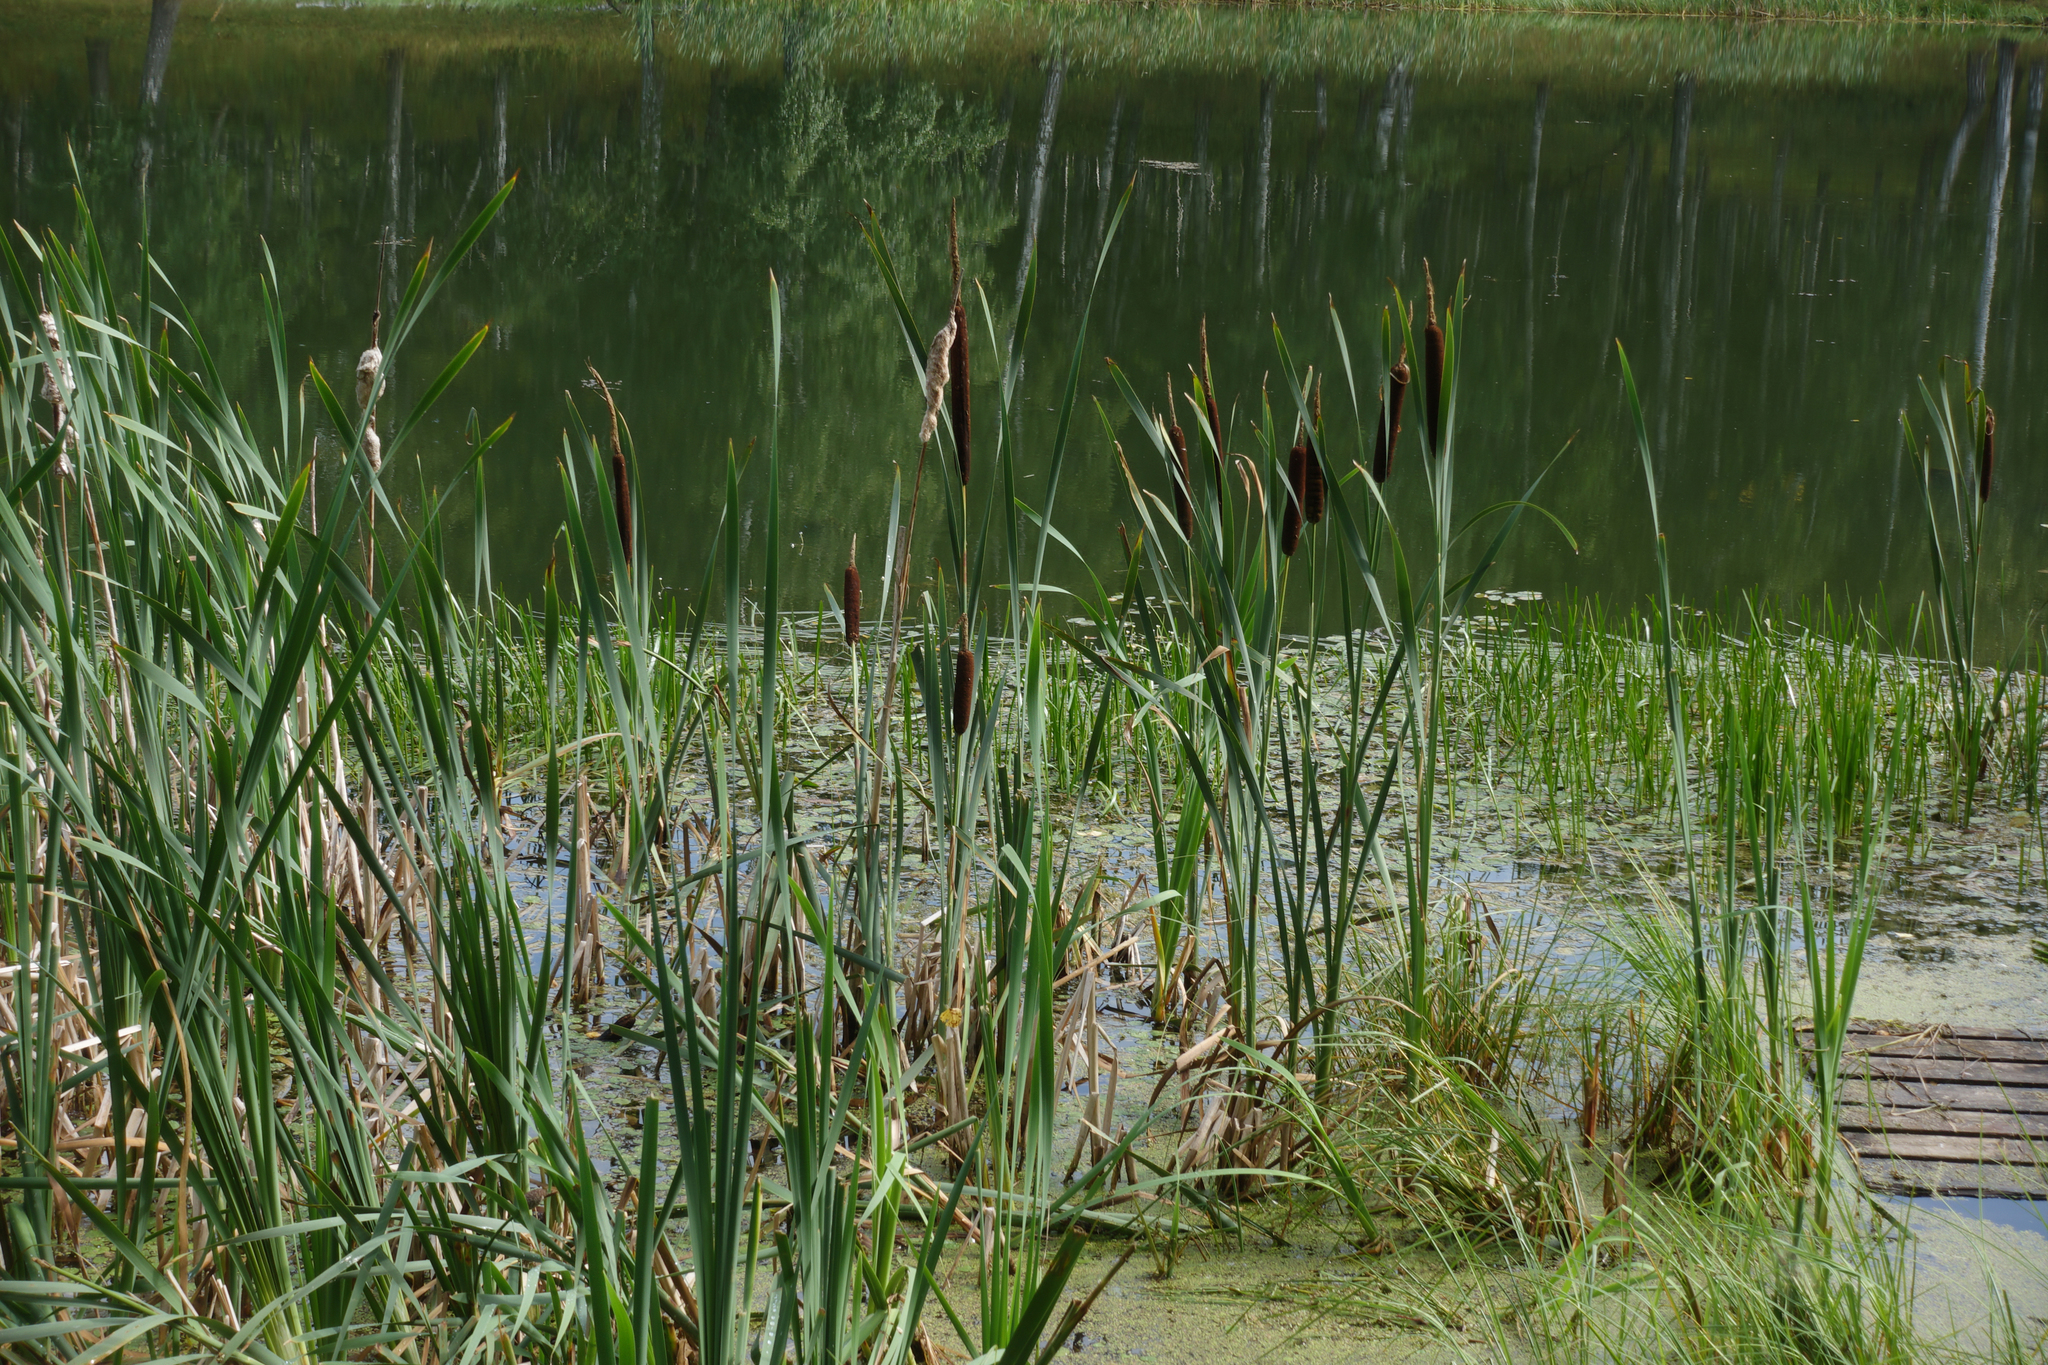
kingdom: Plantae
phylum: Tracheophyta
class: Liliopsida
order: Poales
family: Typhaceae
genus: Typha
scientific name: Typha latifolia
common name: Broadleaf cattail
